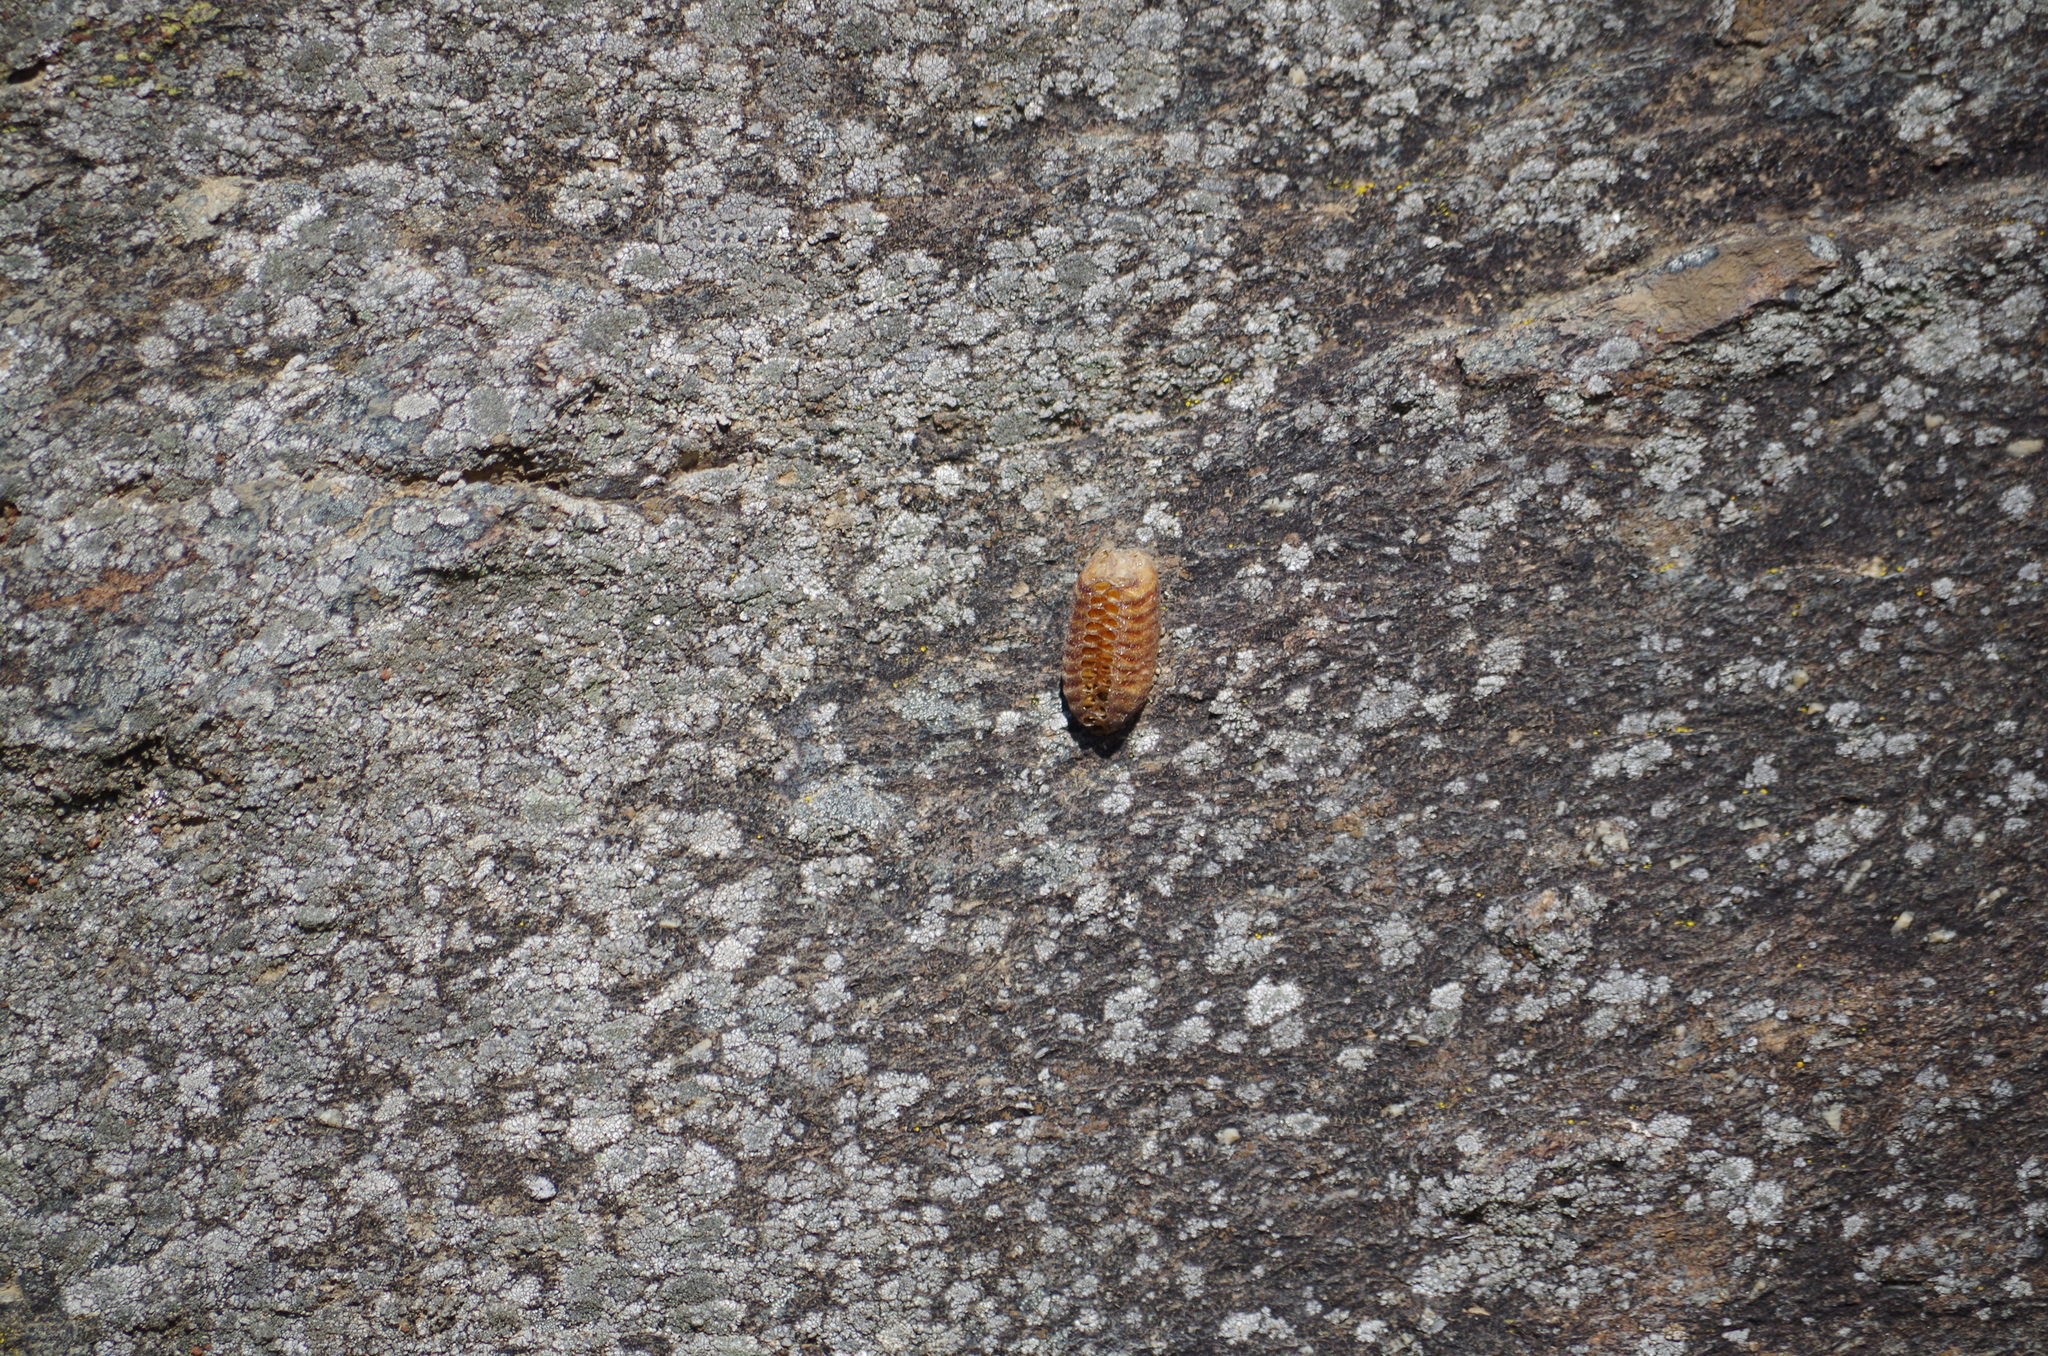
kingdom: Animalia
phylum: Arthropoda
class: Insecta
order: Mantodea
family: Mantidae
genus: Orthodera
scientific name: Orthodera novaezealandiae
